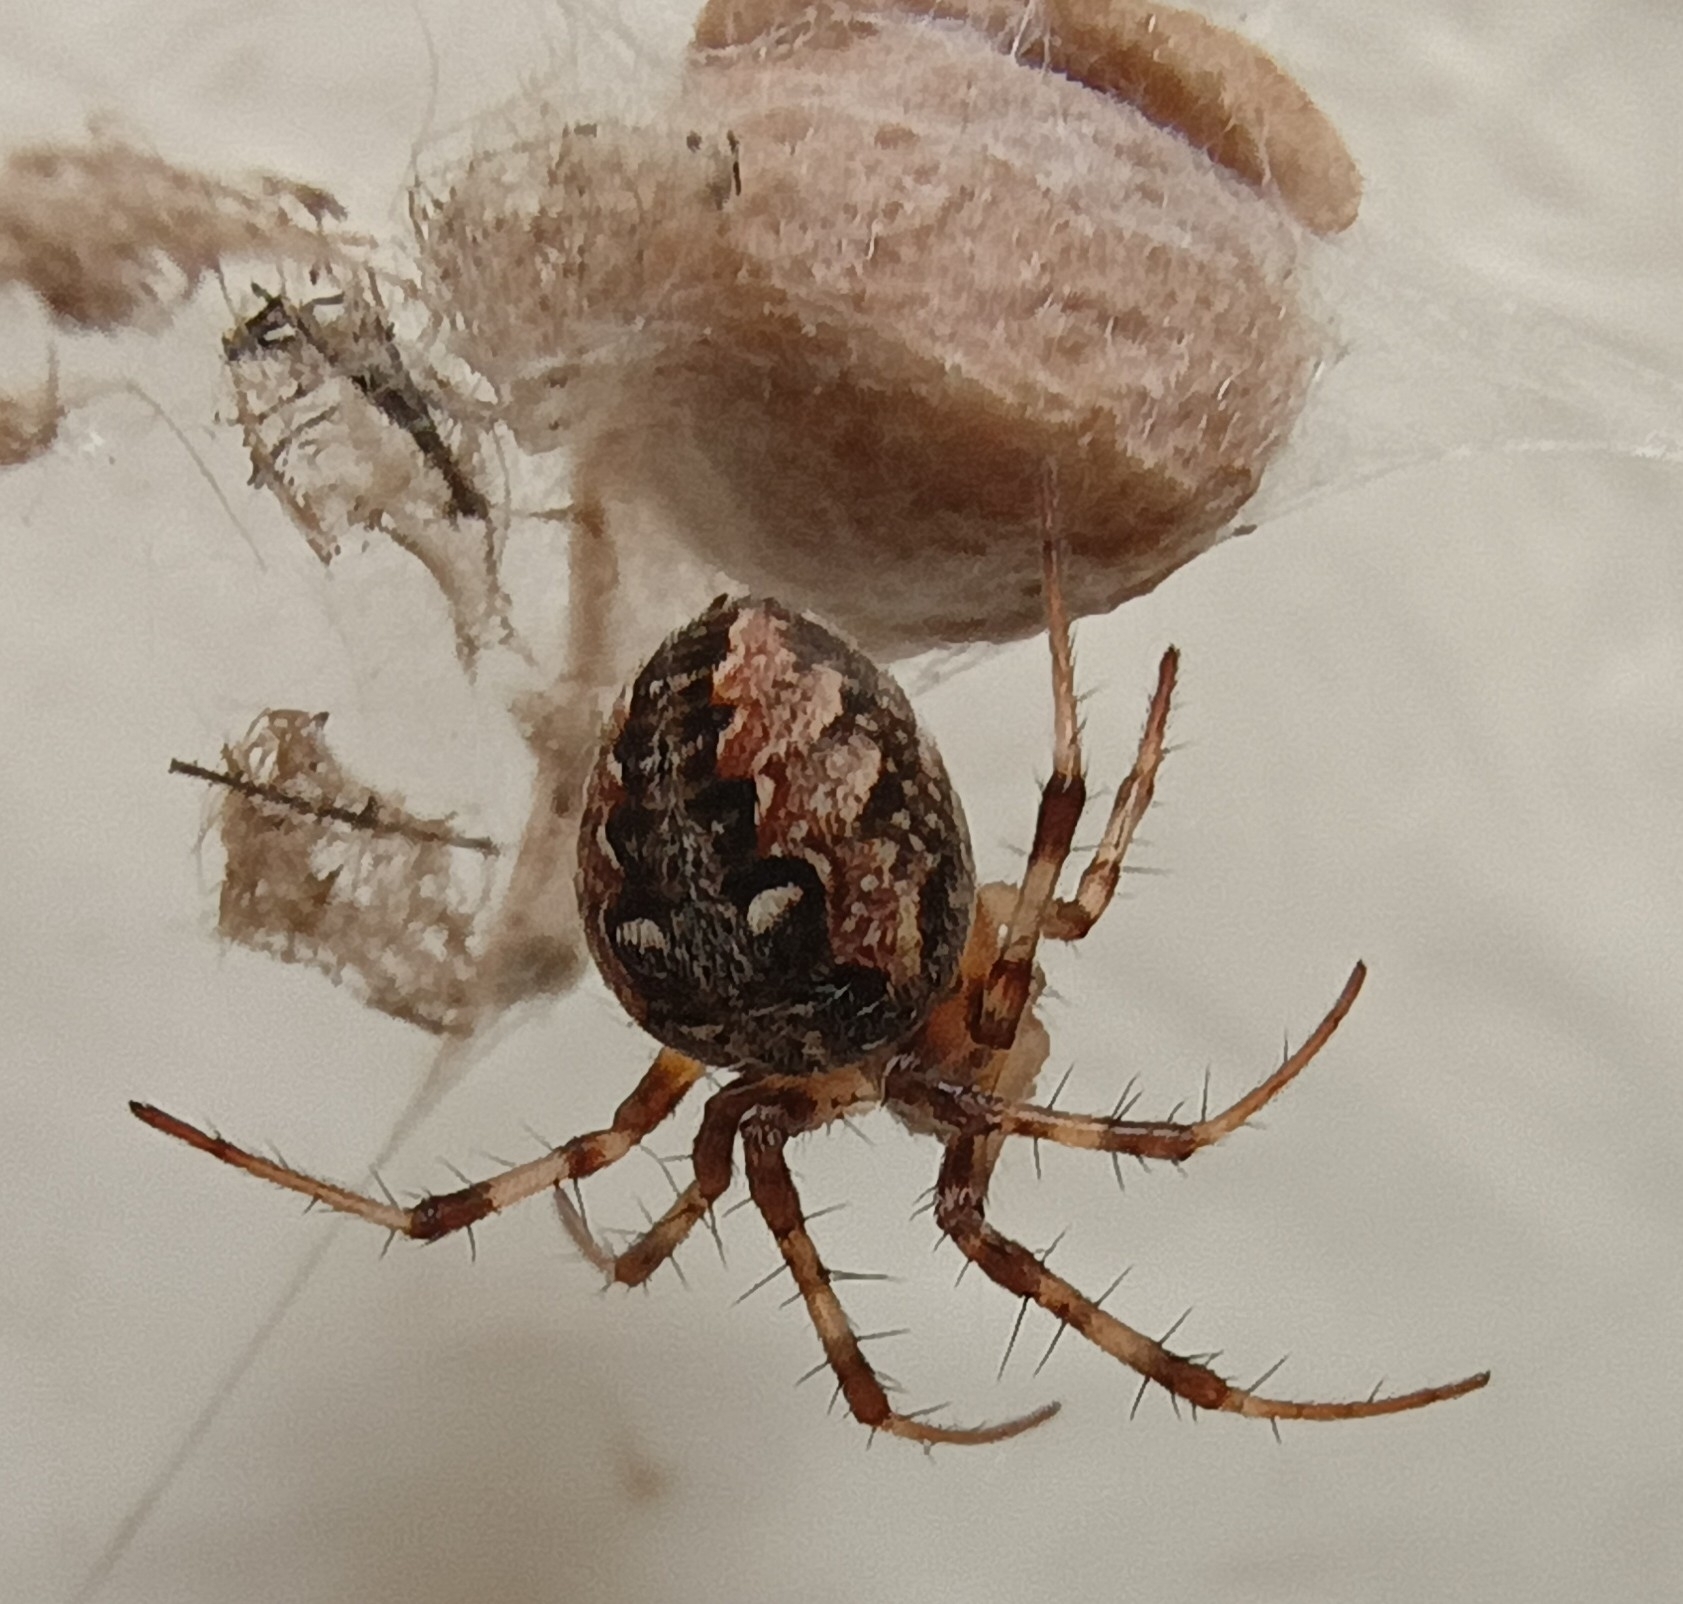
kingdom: Animalia
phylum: Arthropoda
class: Arachnida
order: Araneae
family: Araneidae
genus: Metepeira
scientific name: Metepeira
